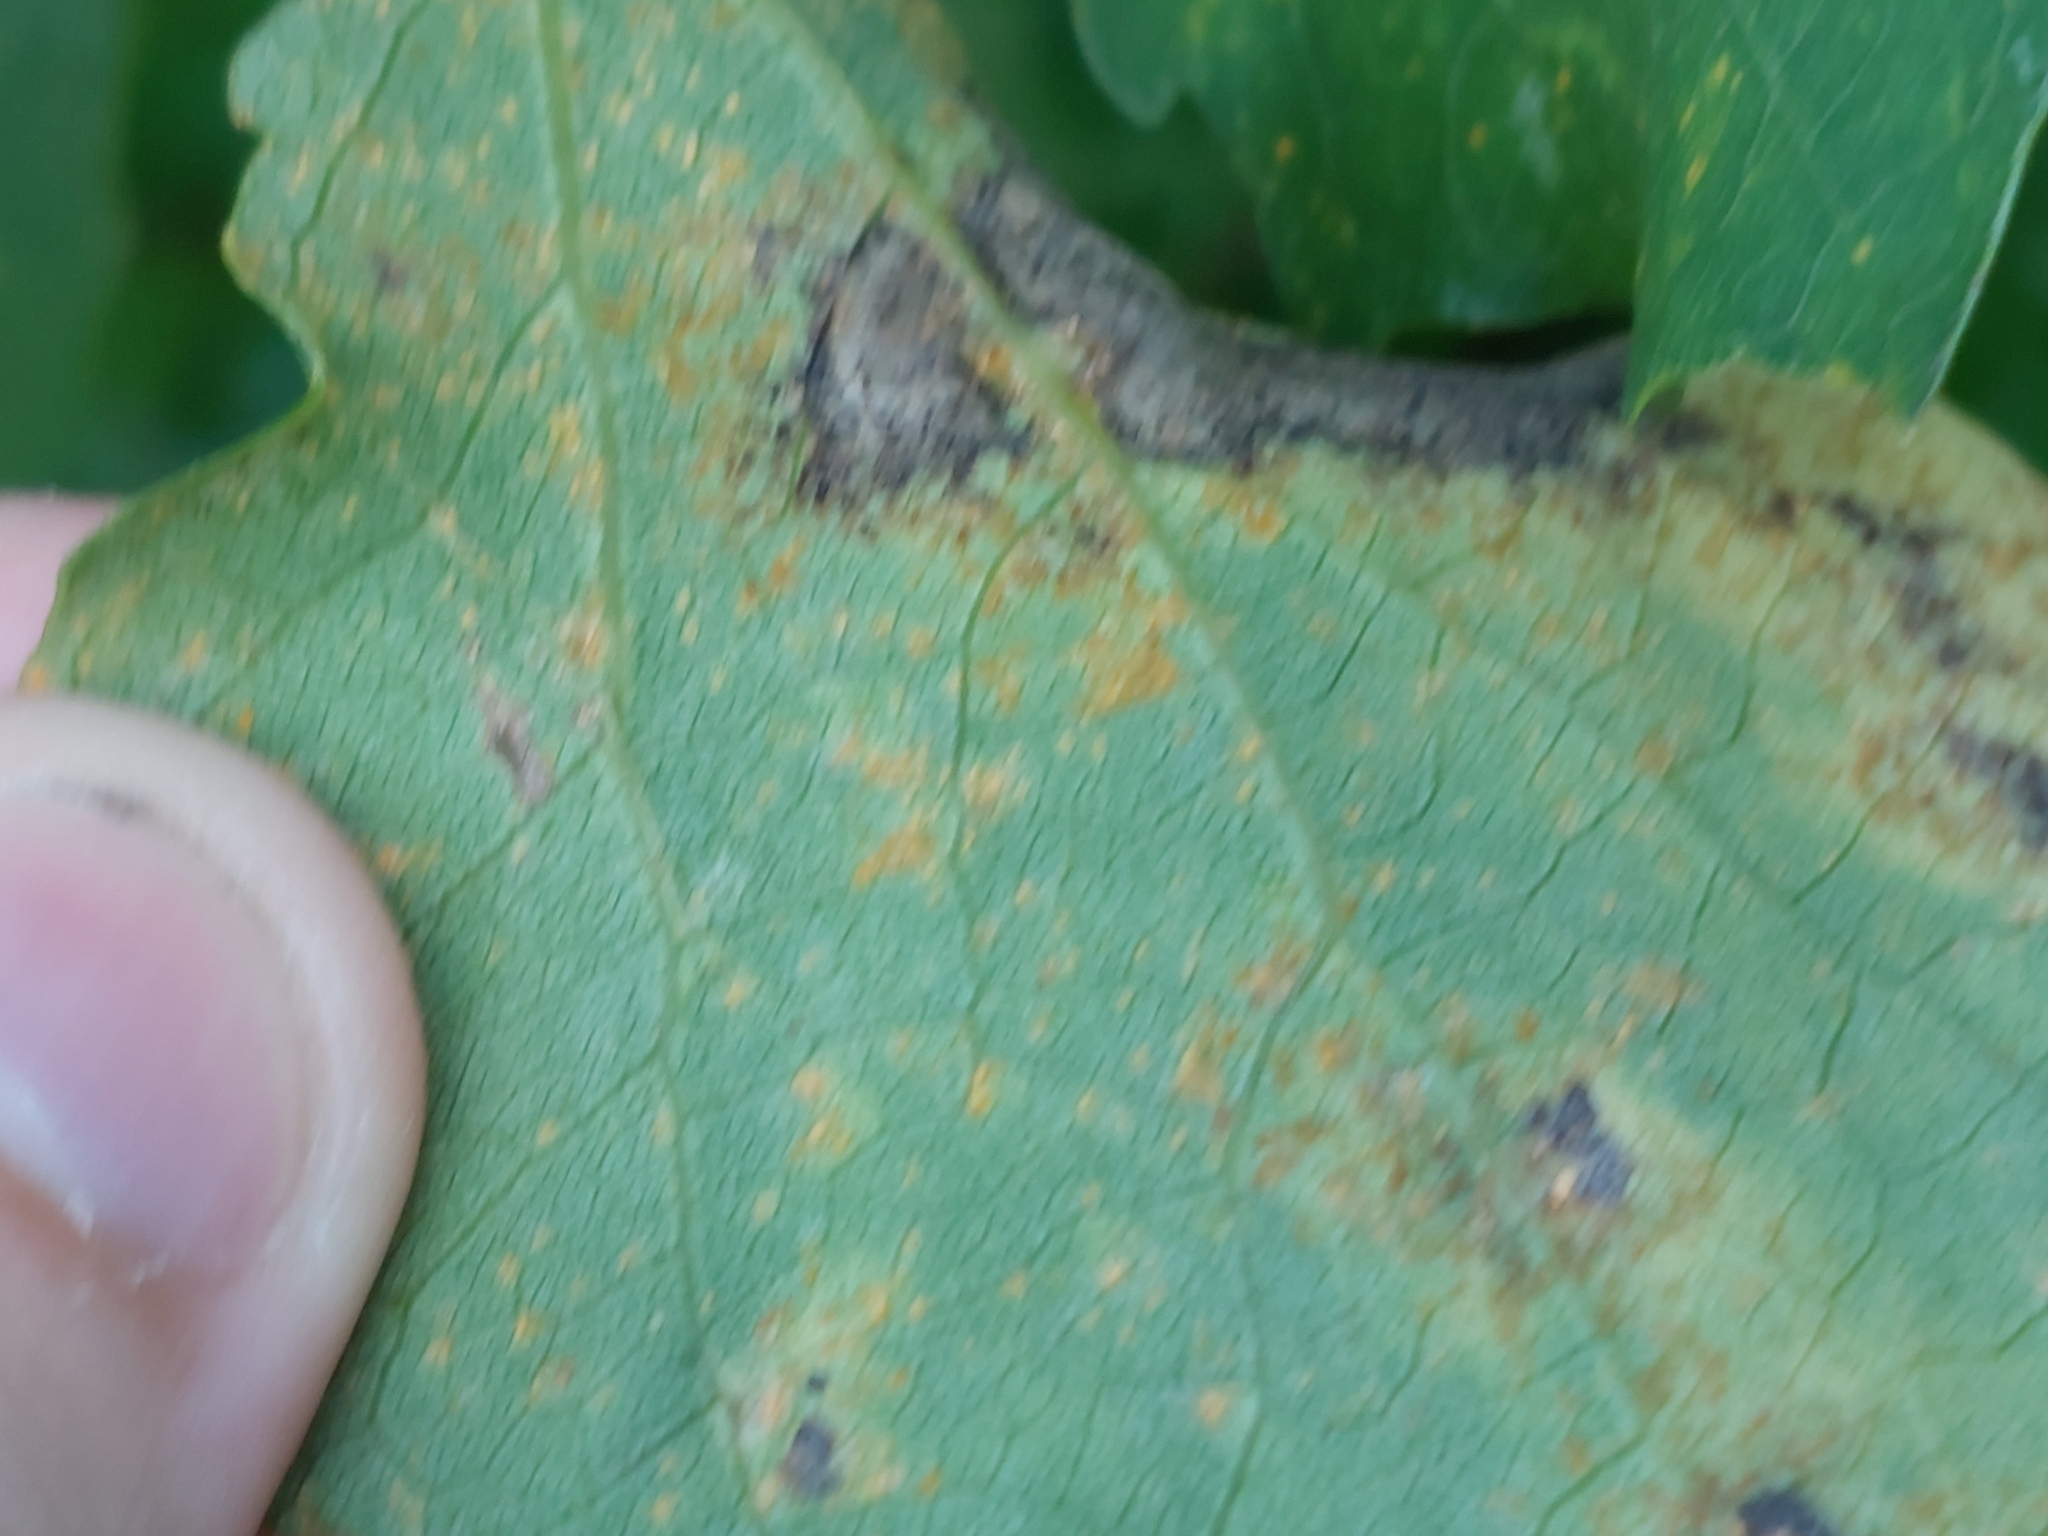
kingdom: Animalia
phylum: Arthropoda
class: Insecta
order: Diptera
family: Cecidomyiidae
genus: Harmandiola
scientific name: Harmandiola tremulae
